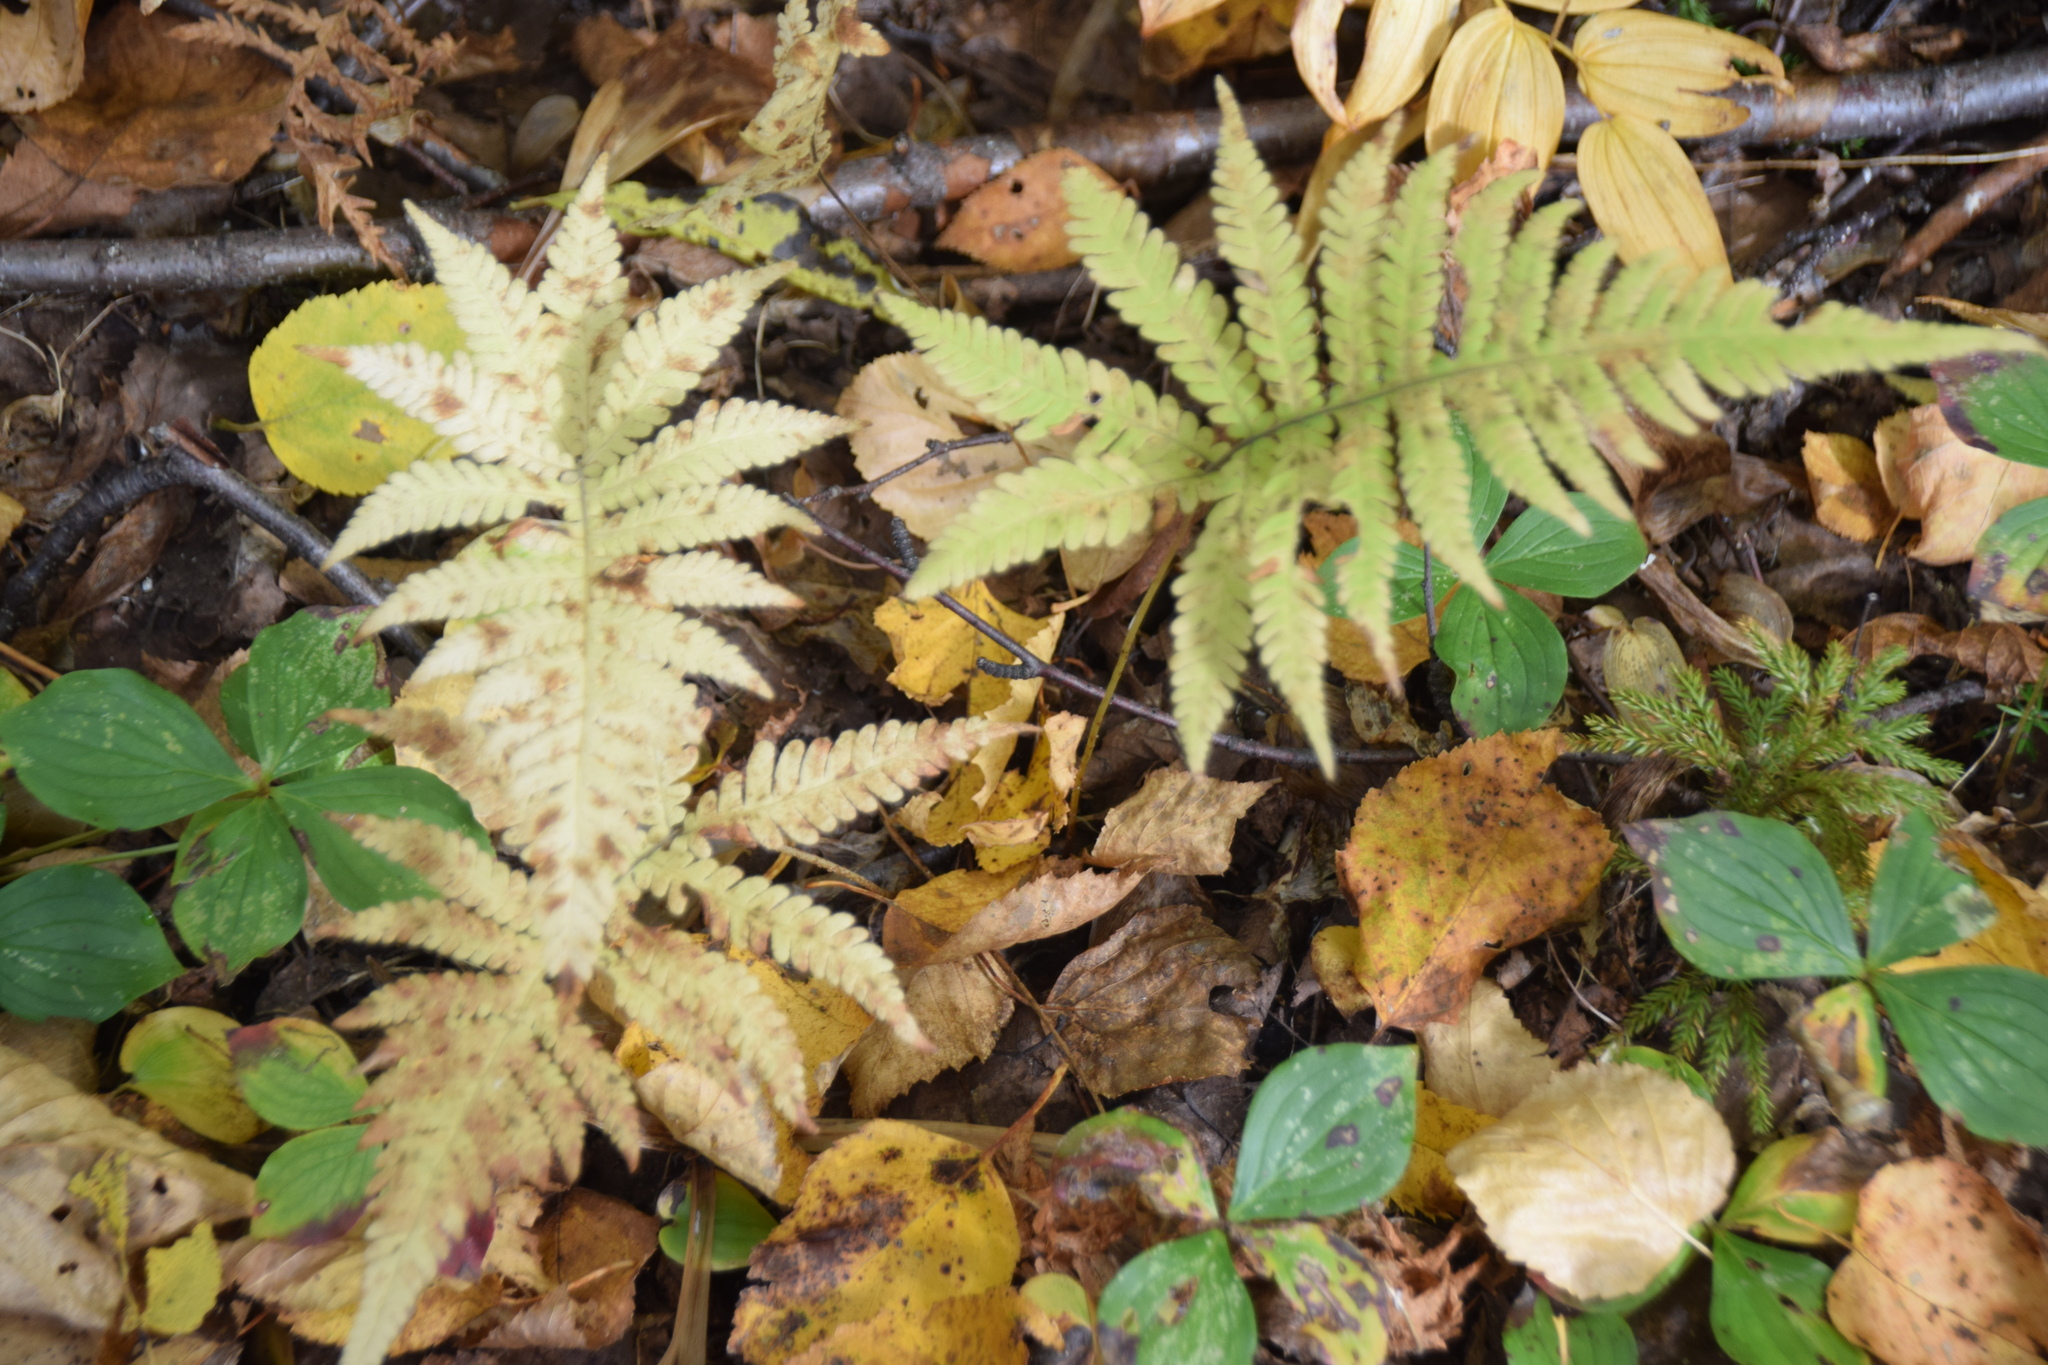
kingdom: Plantae
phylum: Tracheophyta
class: Polypodiopsida
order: Polypodiales
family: Thelypteridaceae
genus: Phegopteris
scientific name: Phegopteris connectilis
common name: Beech fern
